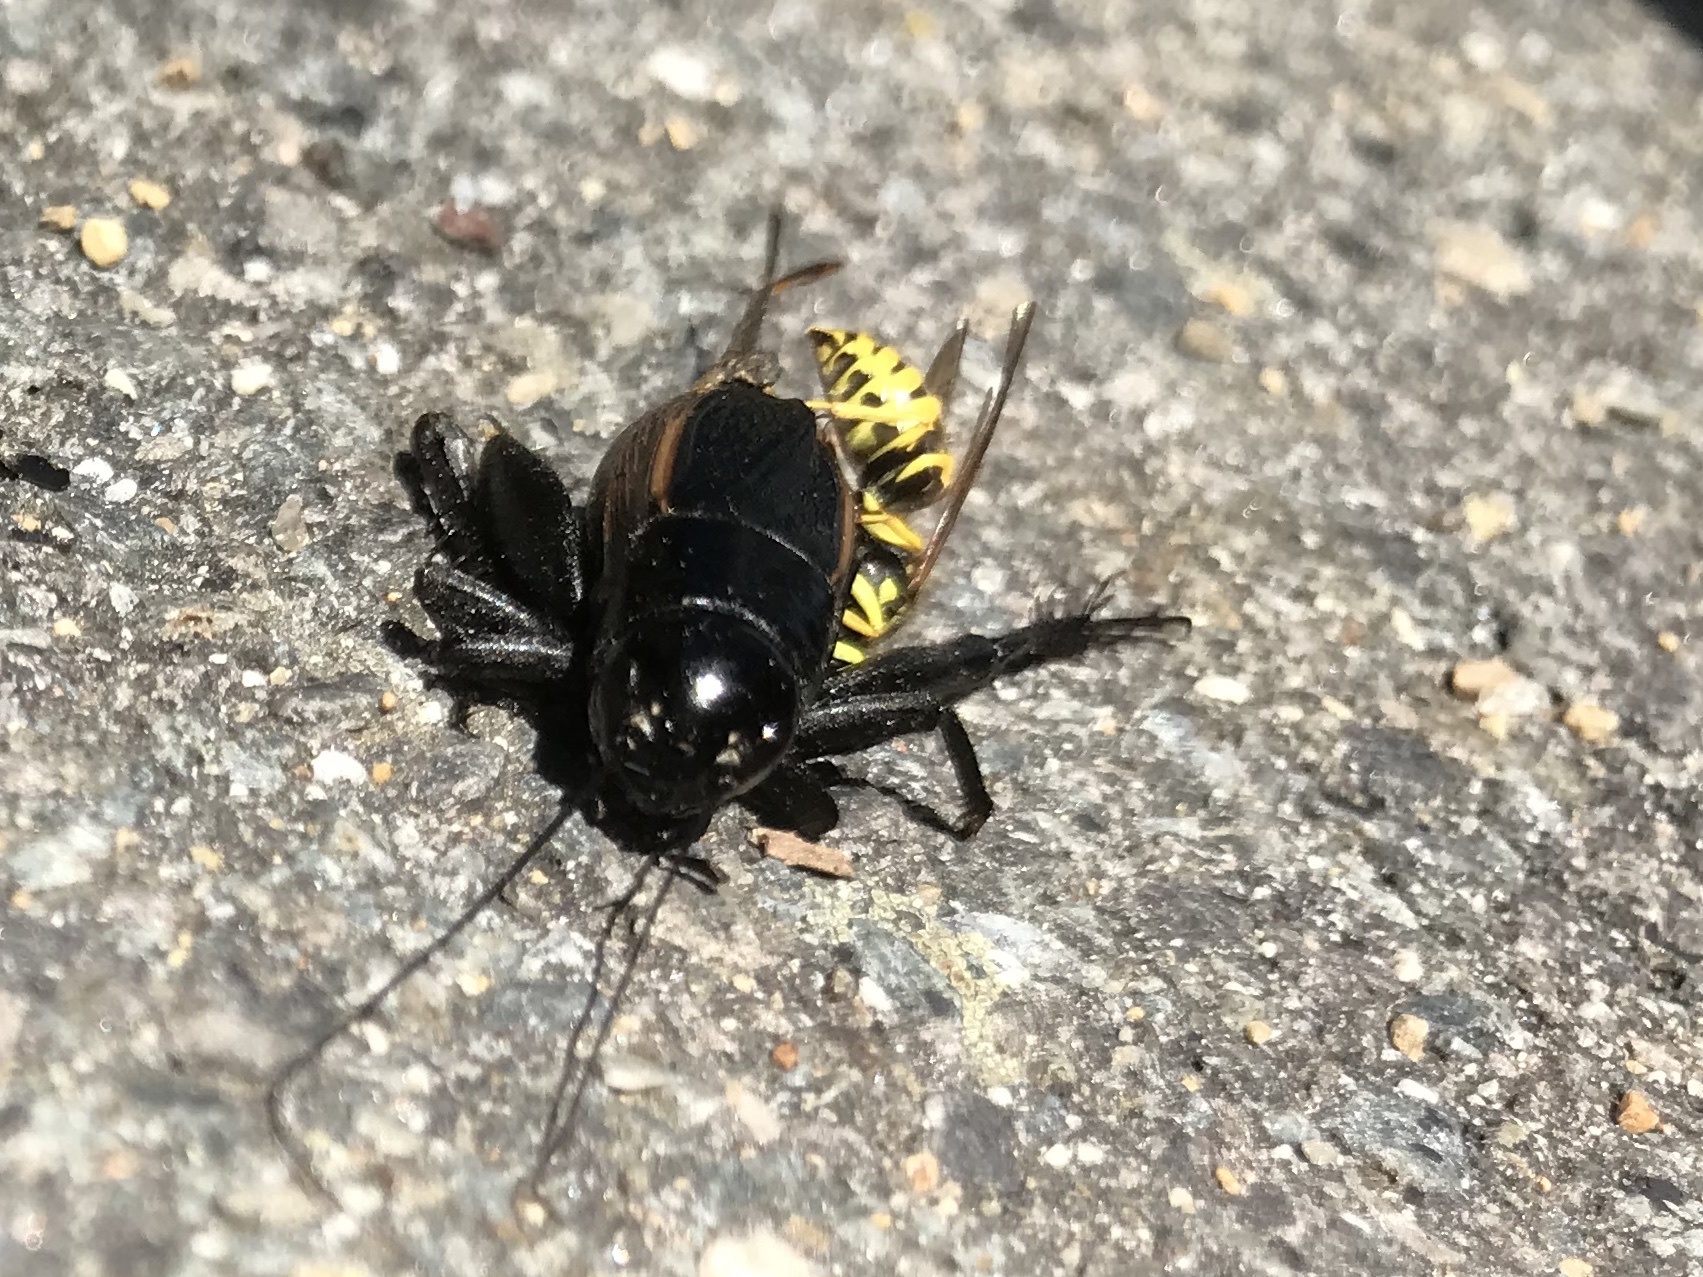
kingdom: Animalia
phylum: Arthropoda
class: Insecta
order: Hymenoptera
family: Vespidae
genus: Vespula
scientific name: Vespula maculifrons
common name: Eastern yellowjacket
